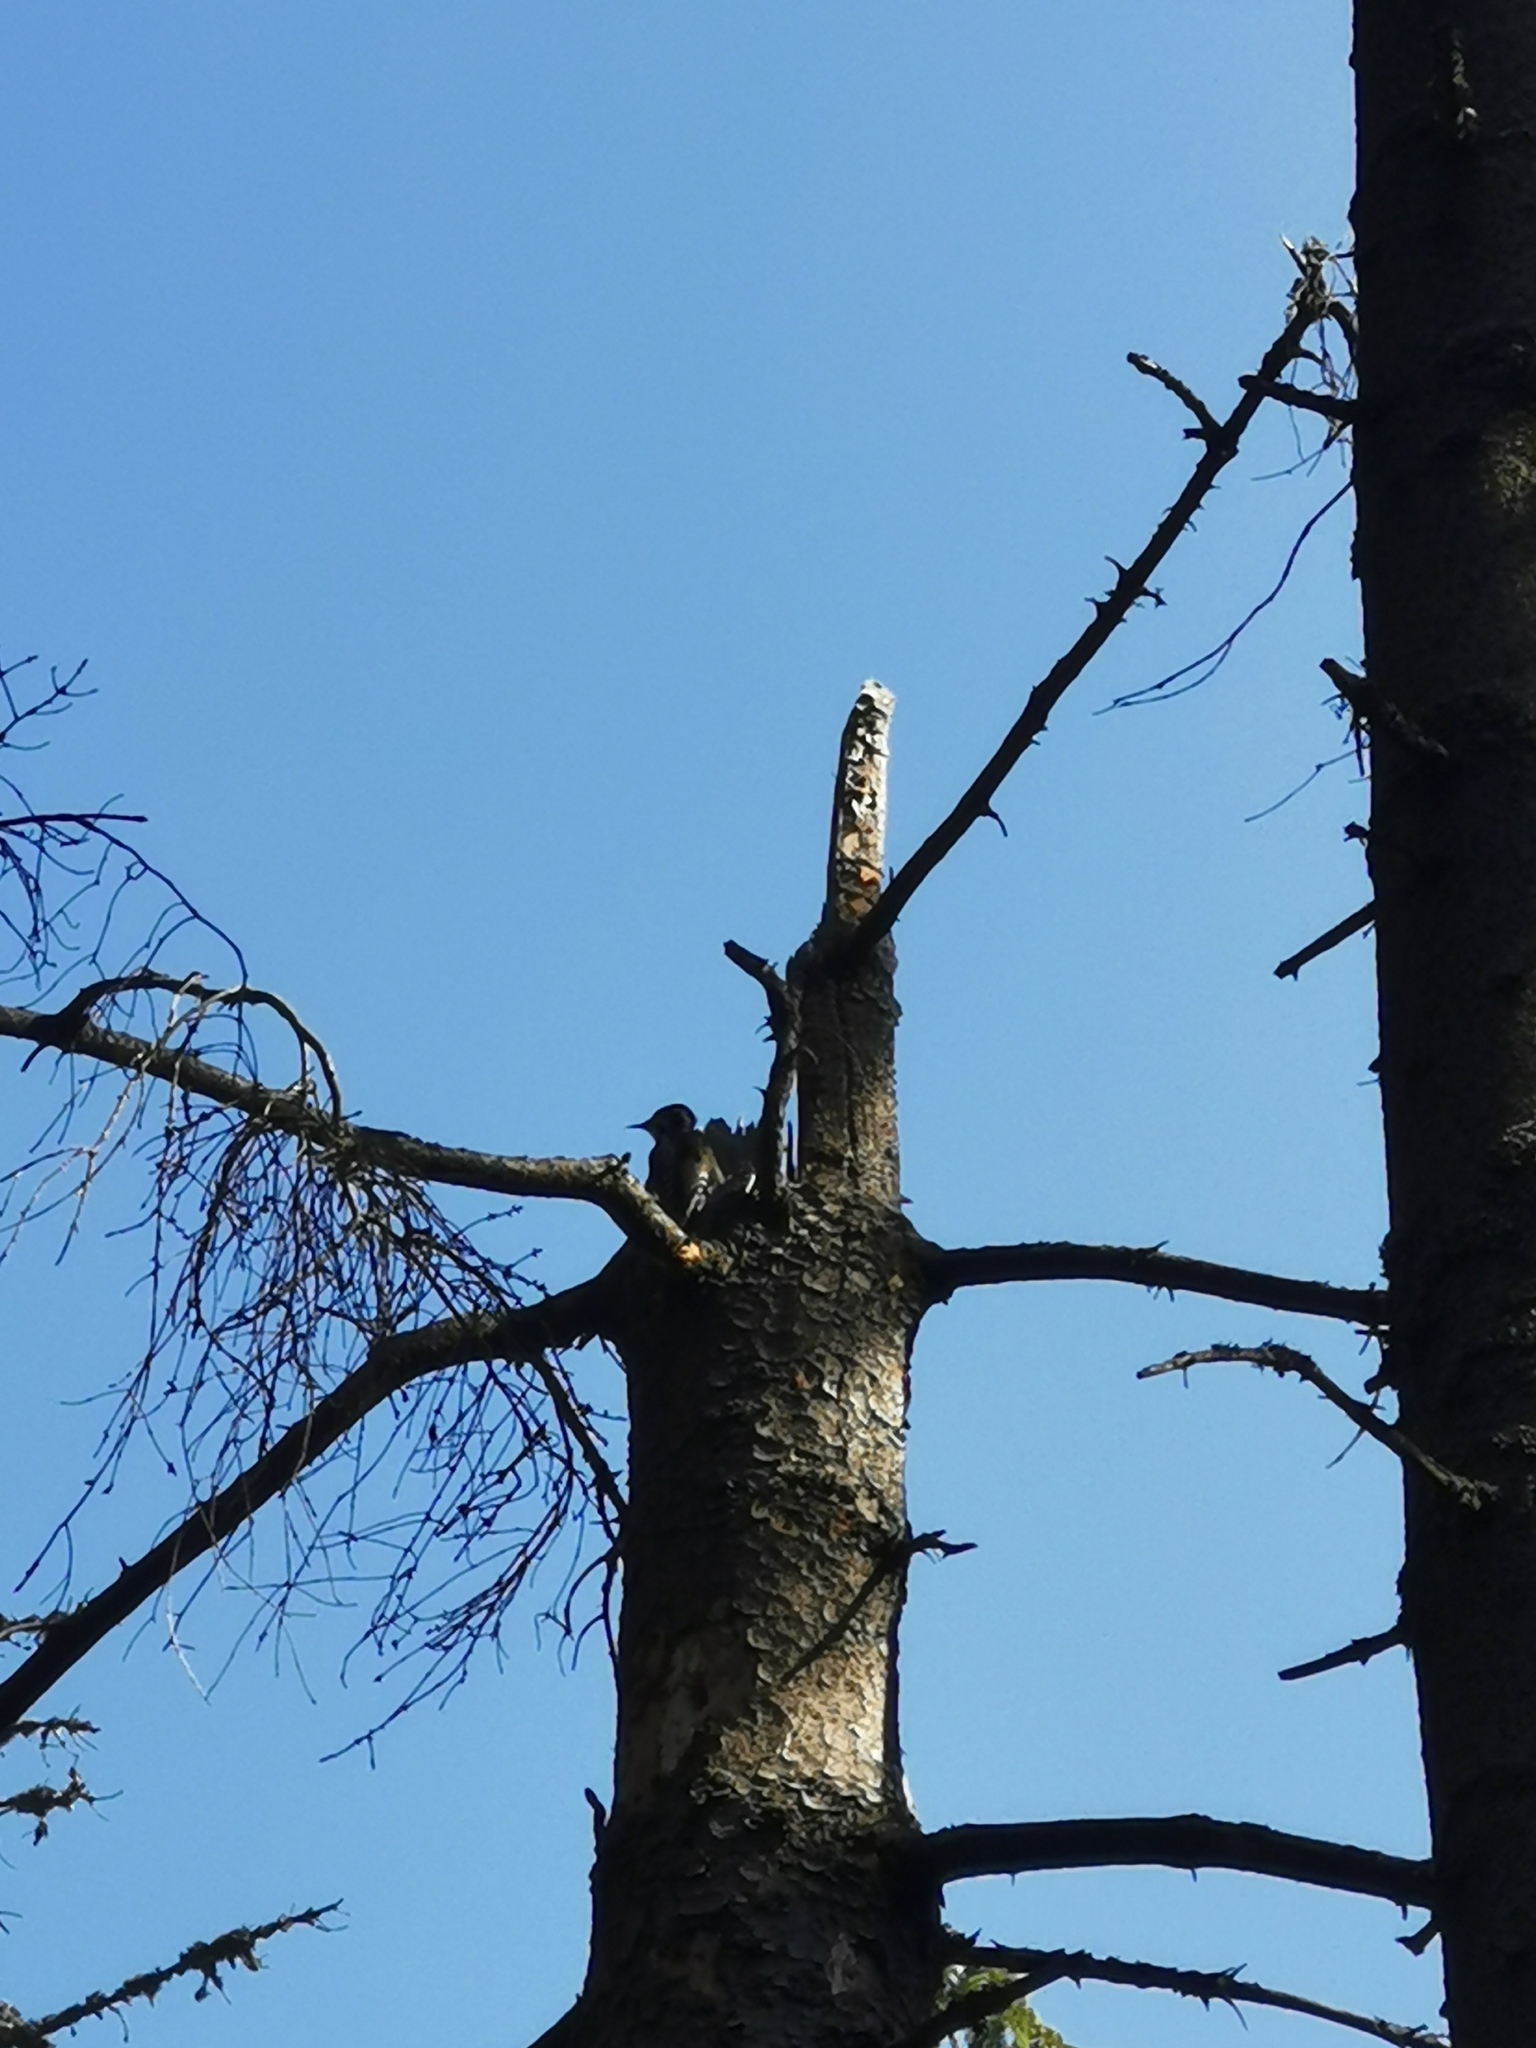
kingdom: Animalia
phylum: Chordata
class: Aves
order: Piciformes
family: Picidae
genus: Picoides
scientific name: Picoides tridactylus
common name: Eurasian three-toed woodpecker
